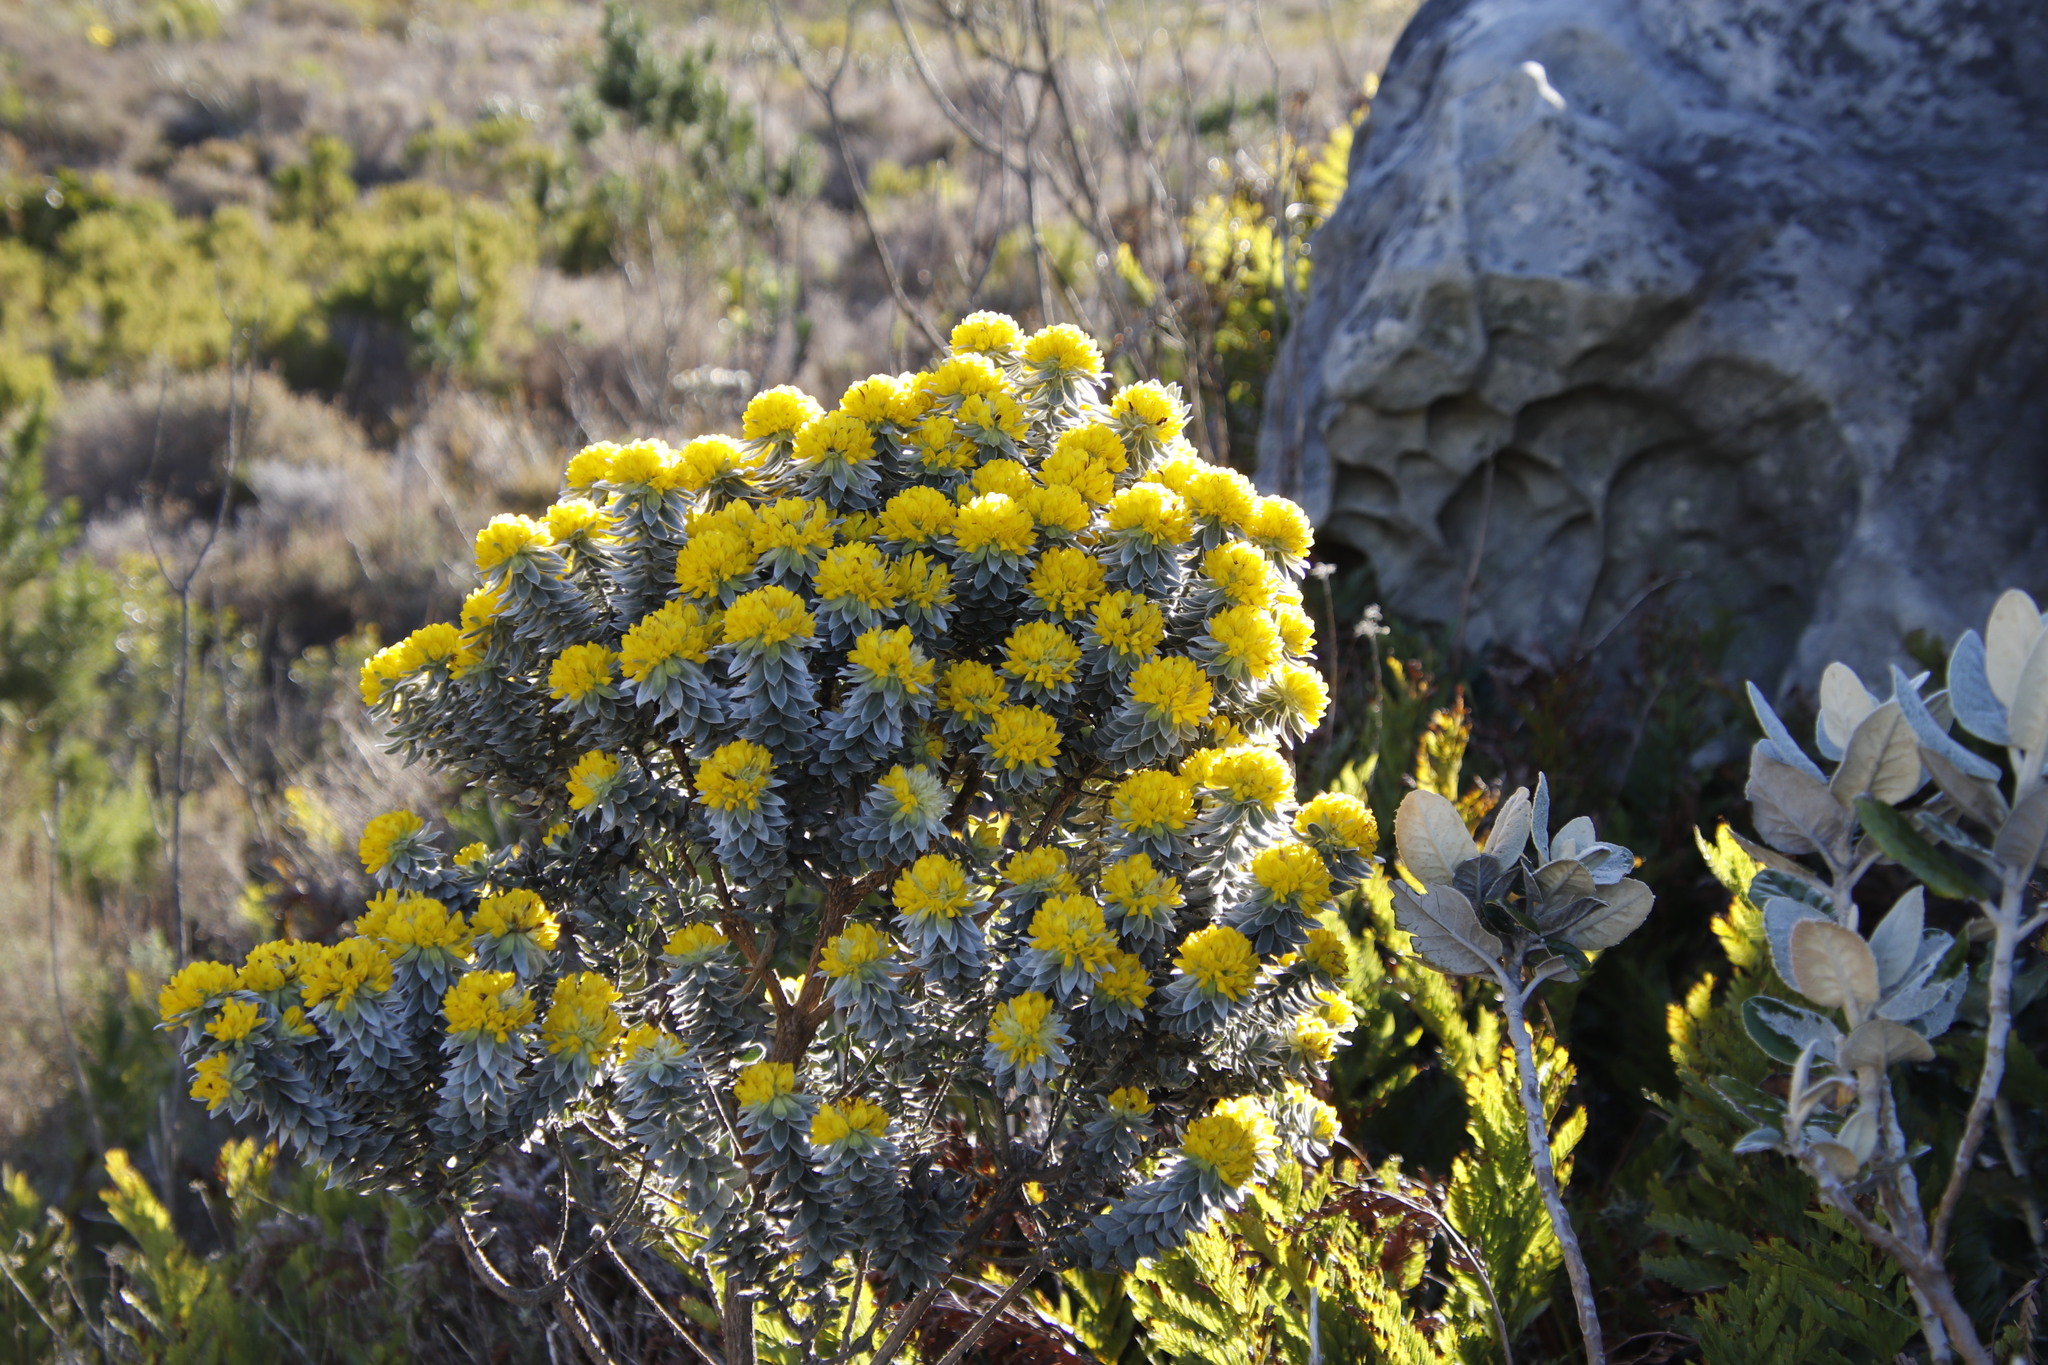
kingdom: Plantae
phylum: Tracheophyta
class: Magnoliopsida
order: Fabales
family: Fabaceae
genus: Xiphotheca
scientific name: Xiphotheca fruticosa
